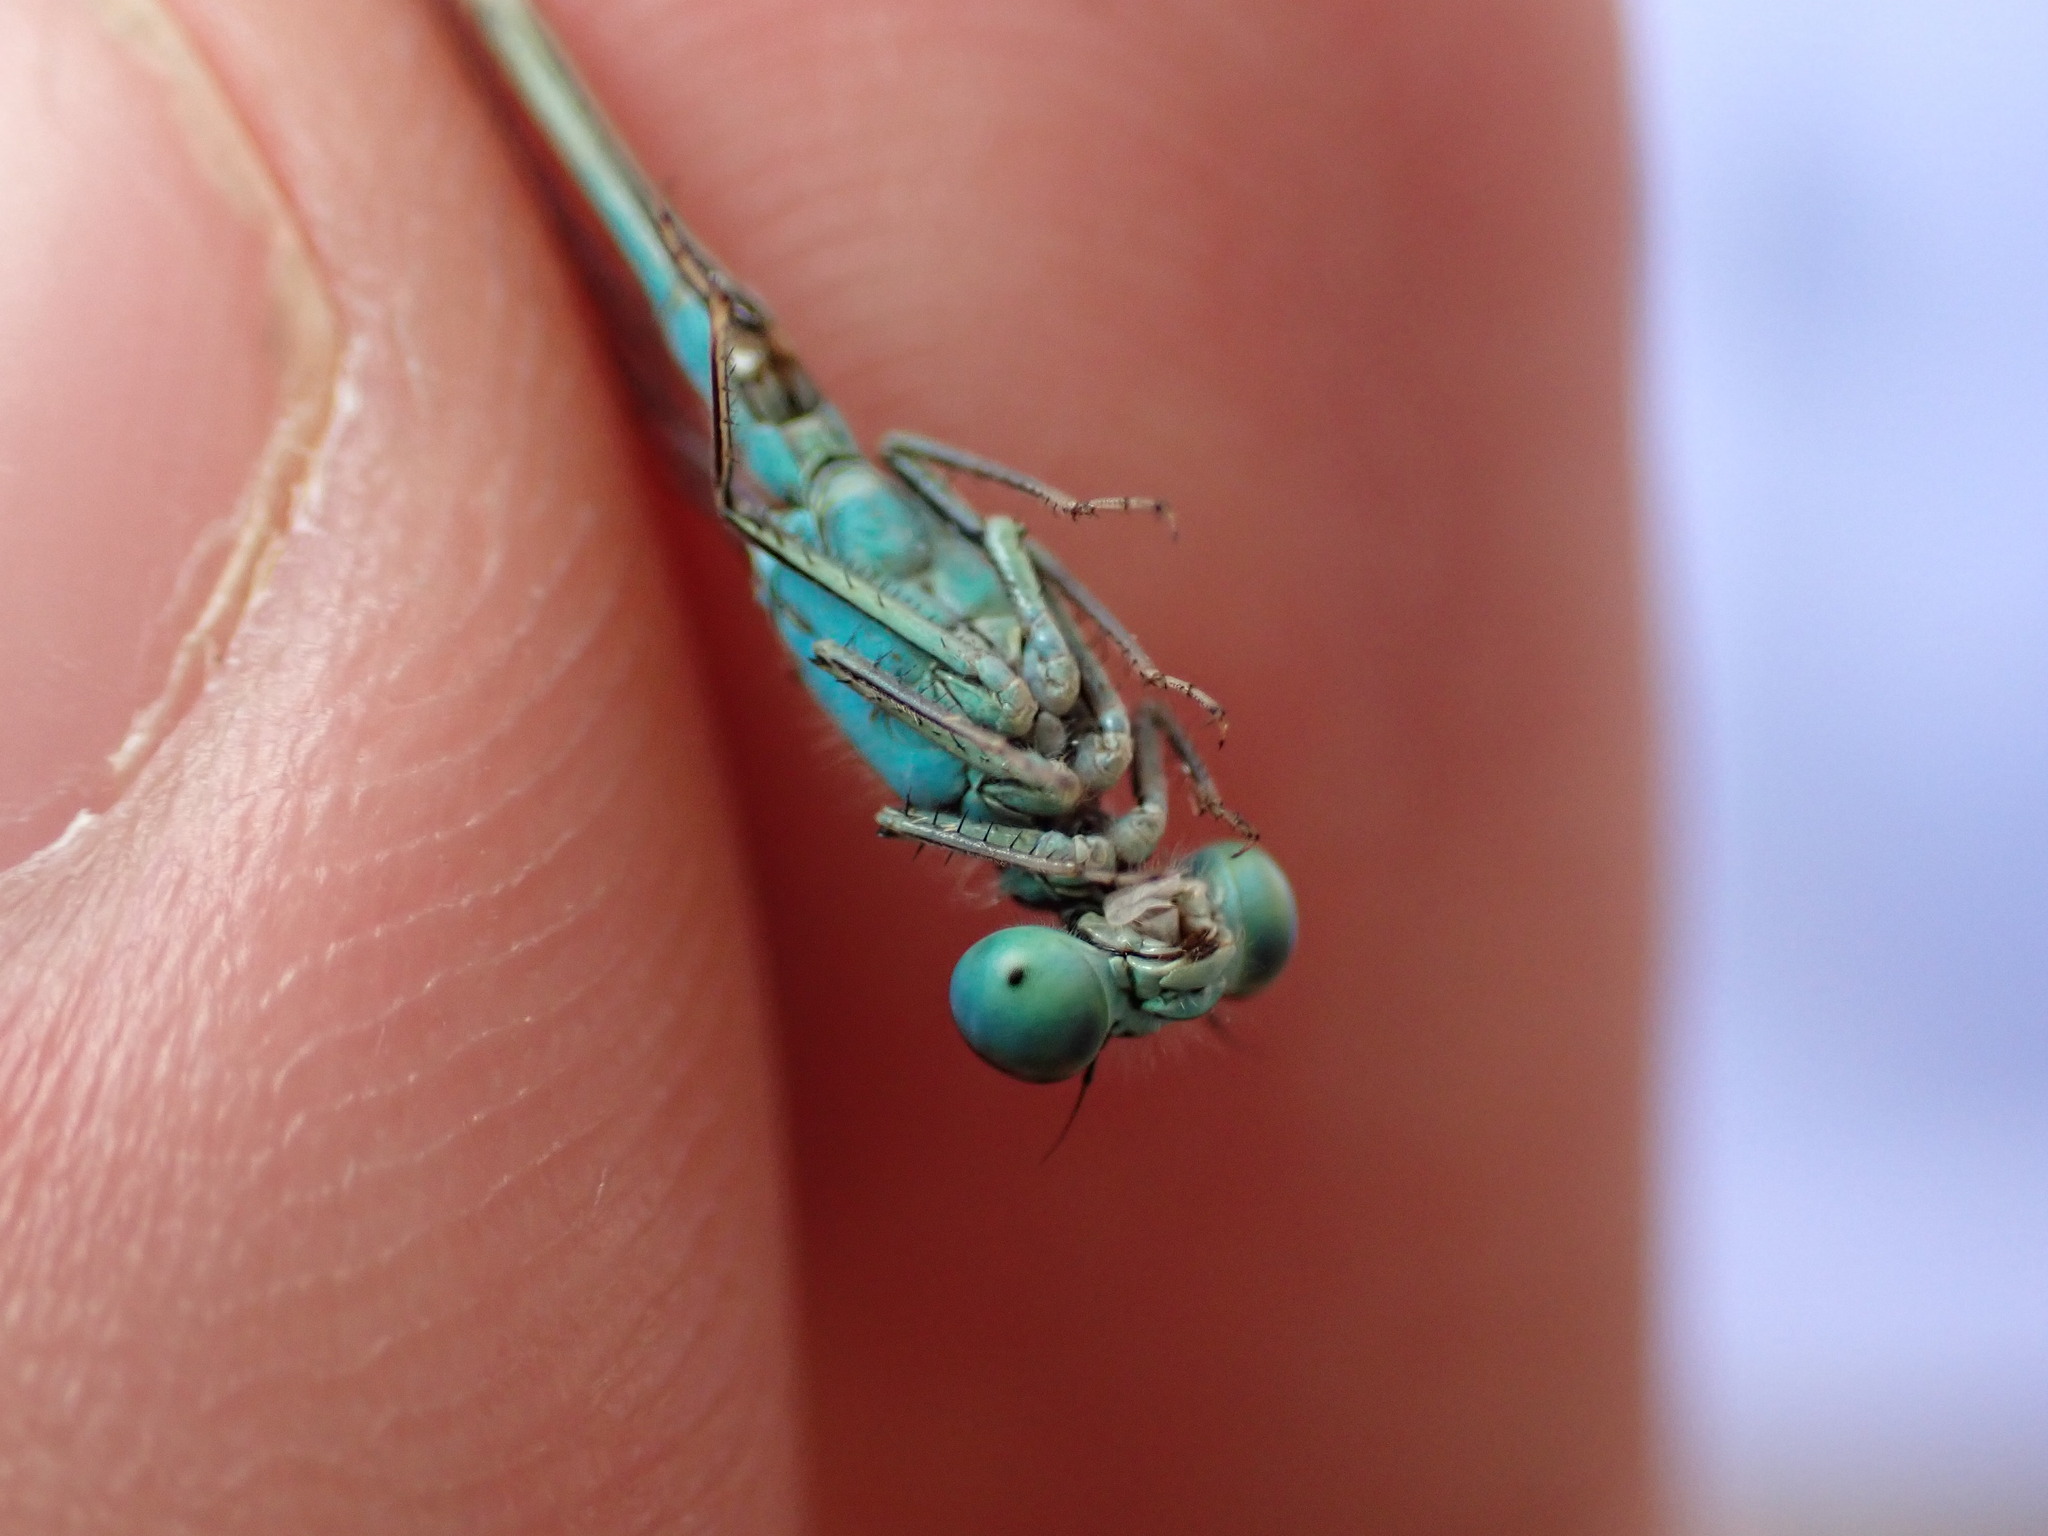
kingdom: Animalia
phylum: Arthropoda
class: Insecta
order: Odonata
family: Coenagrionidae
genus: Ischnura
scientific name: Ischnura elegans
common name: Blue-tailed damselfly
